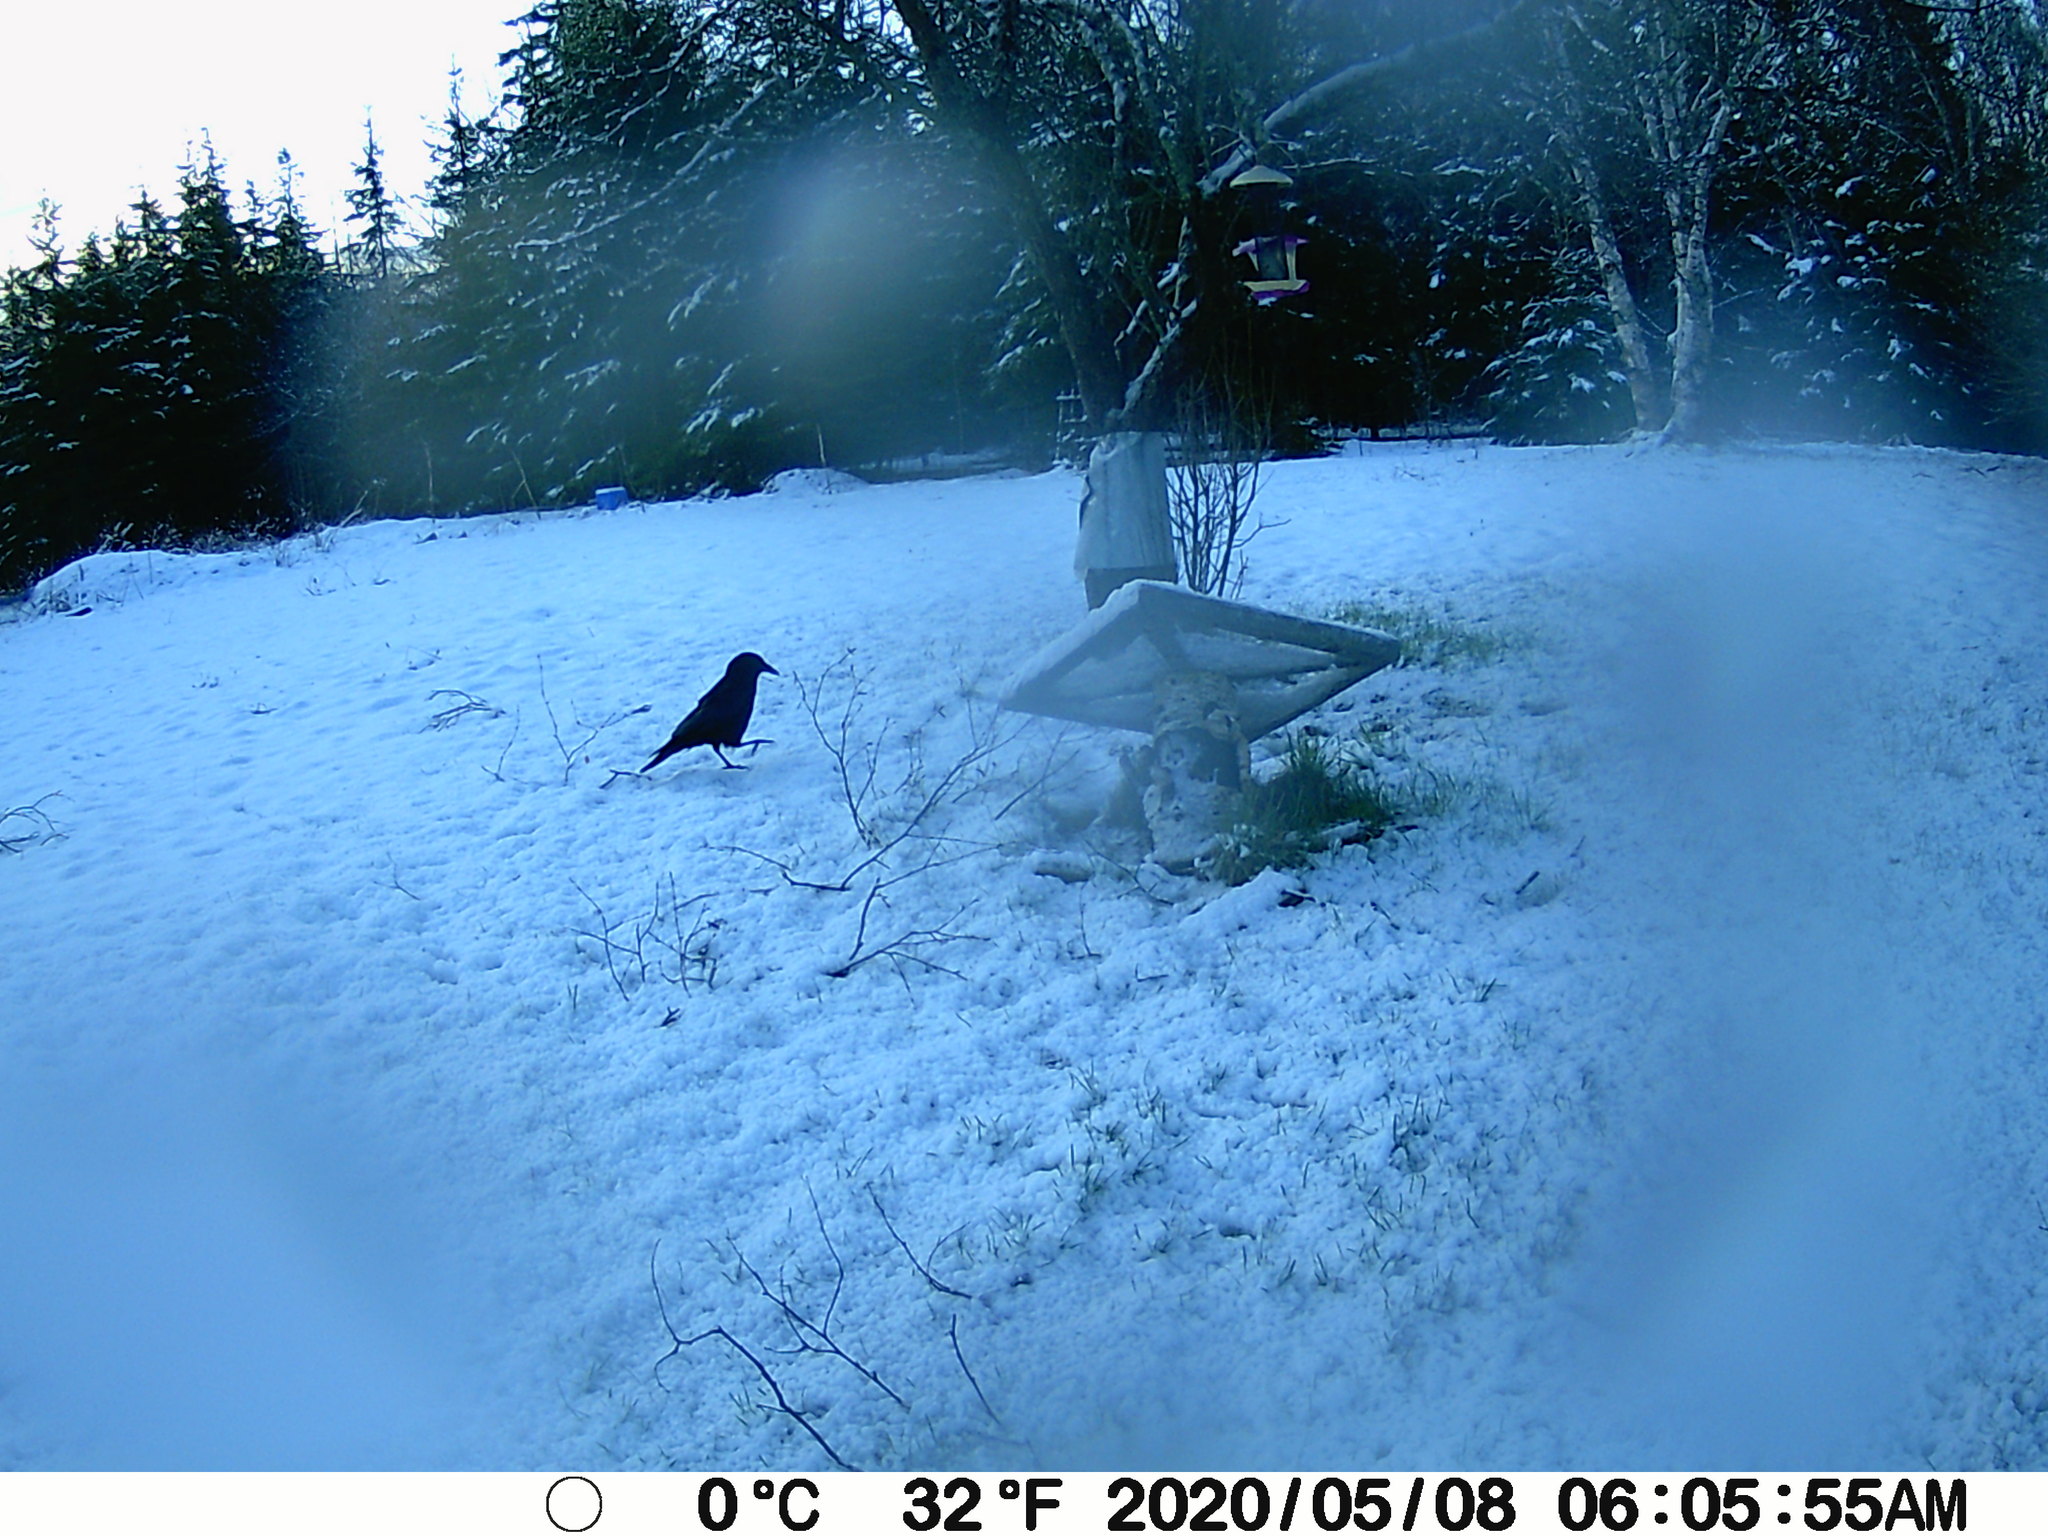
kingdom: Animalia
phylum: Chordata
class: Aves
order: Passeriformes
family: Corvidae
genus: Corvus
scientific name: Corvus brachyrhynchos
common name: American crow
